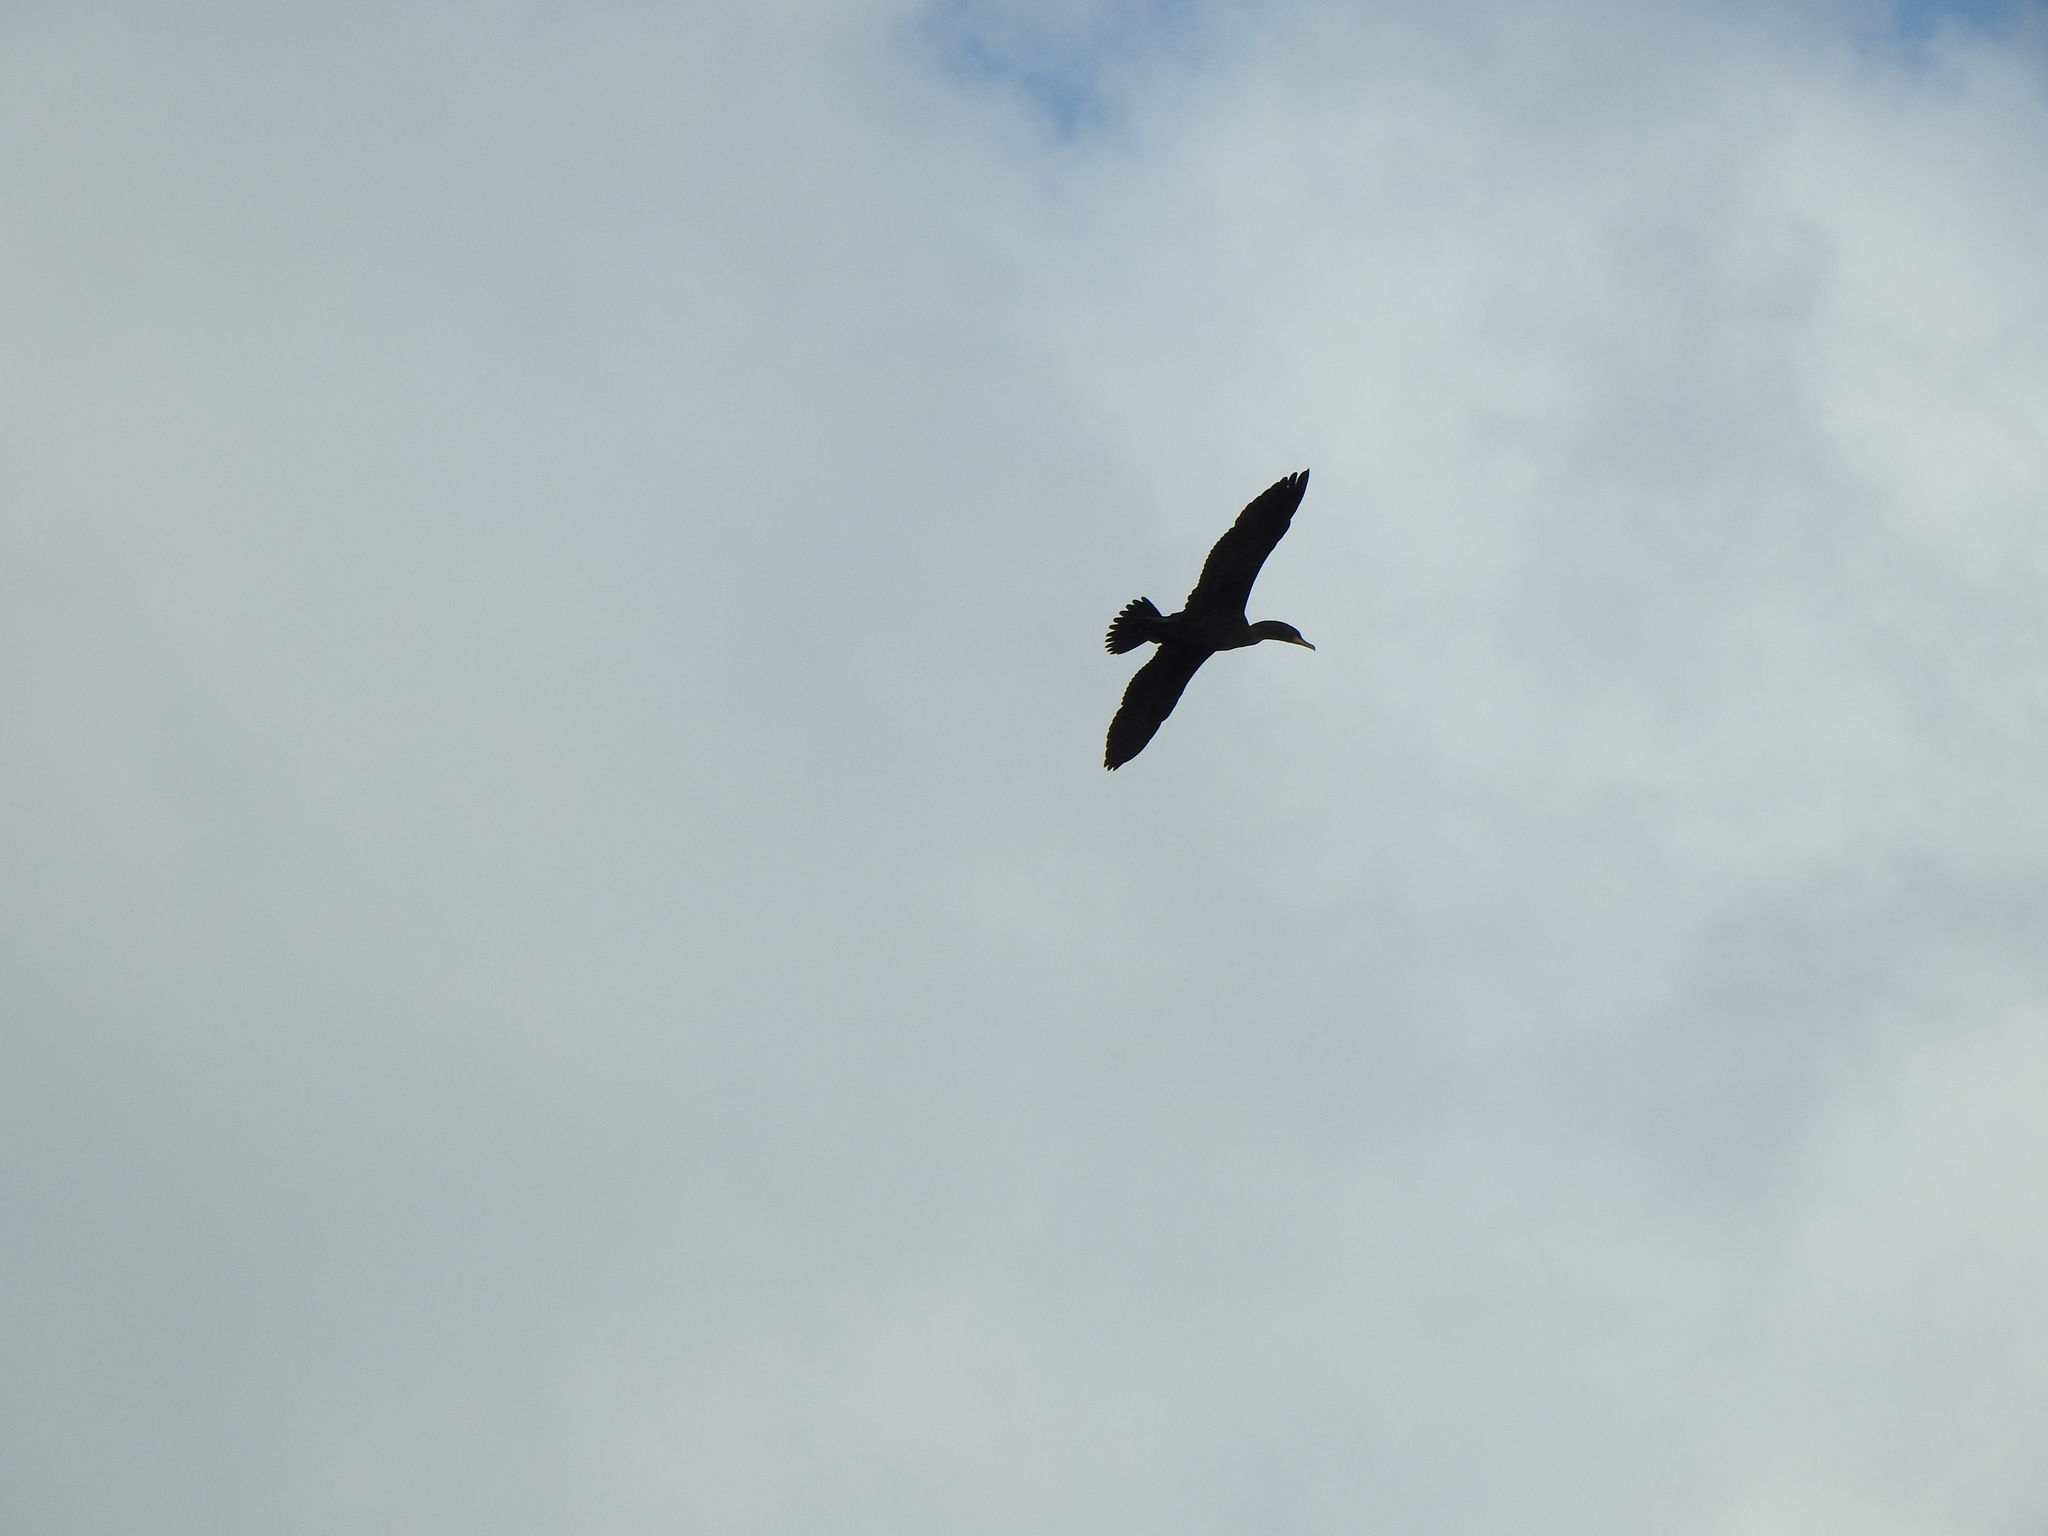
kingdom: Animalia
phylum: Chordata
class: Aves
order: Suliformes
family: Phalacrocoracidae
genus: Phalacrocorax
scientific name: Phalacrocorax auritus
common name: Double-crested cormorant
